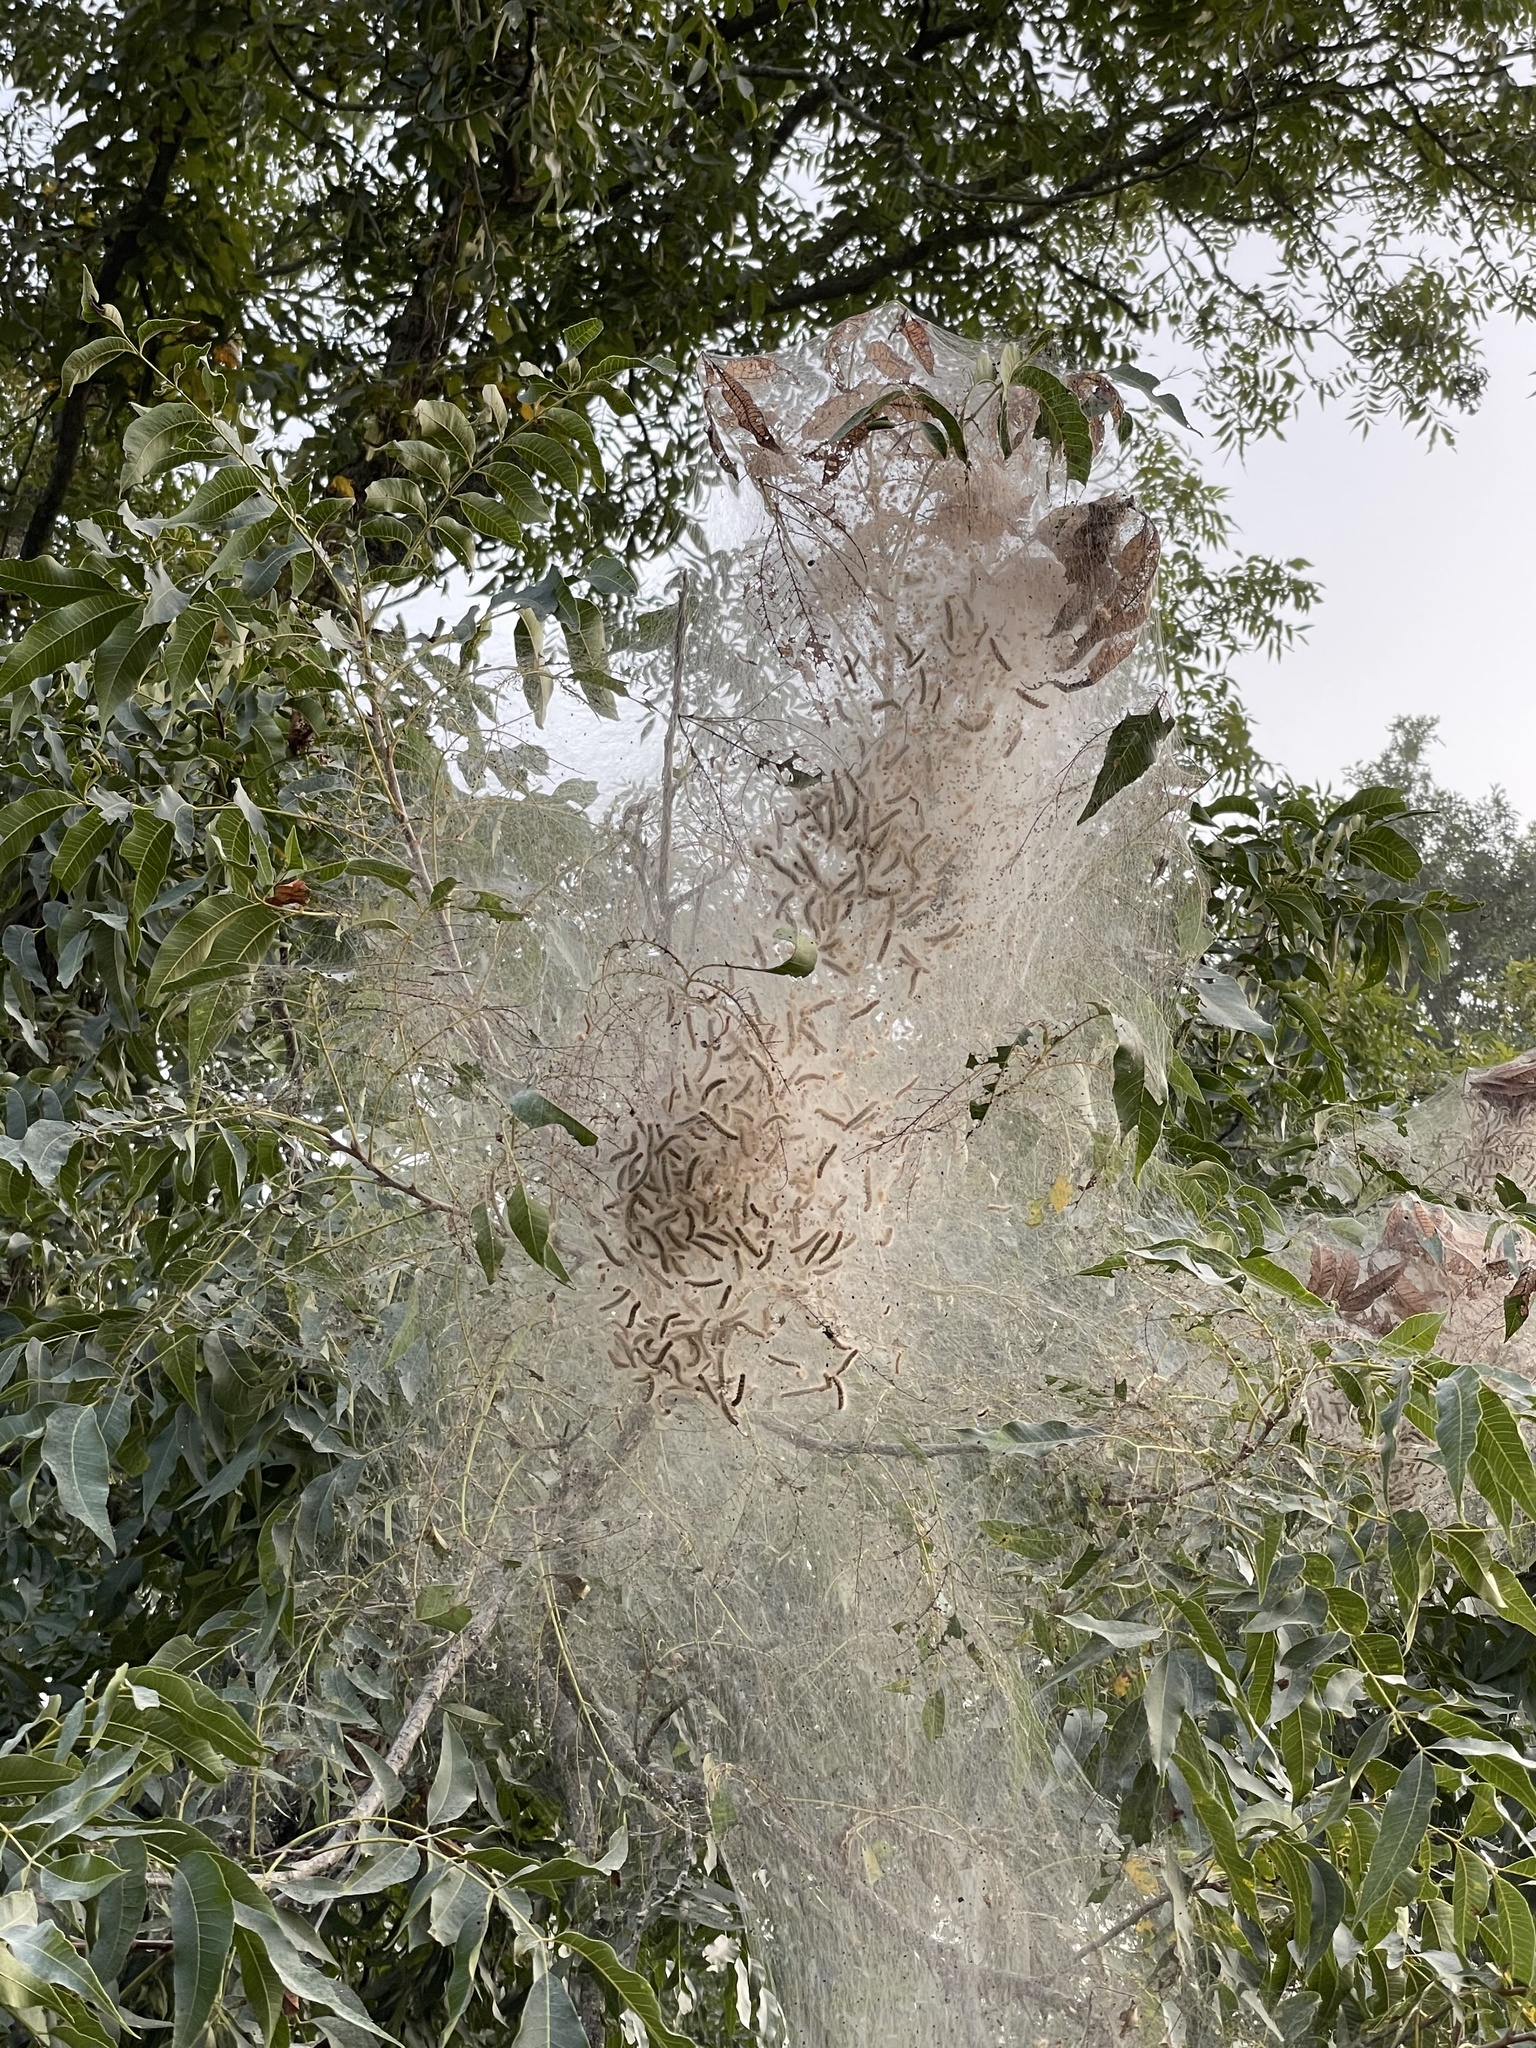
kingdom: Animalia
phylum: Arthropoda
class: Insecta
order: Lepidoptera
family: Erebidae
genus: Hyphantria
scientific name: Hyphantria cunea
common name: American white moth
